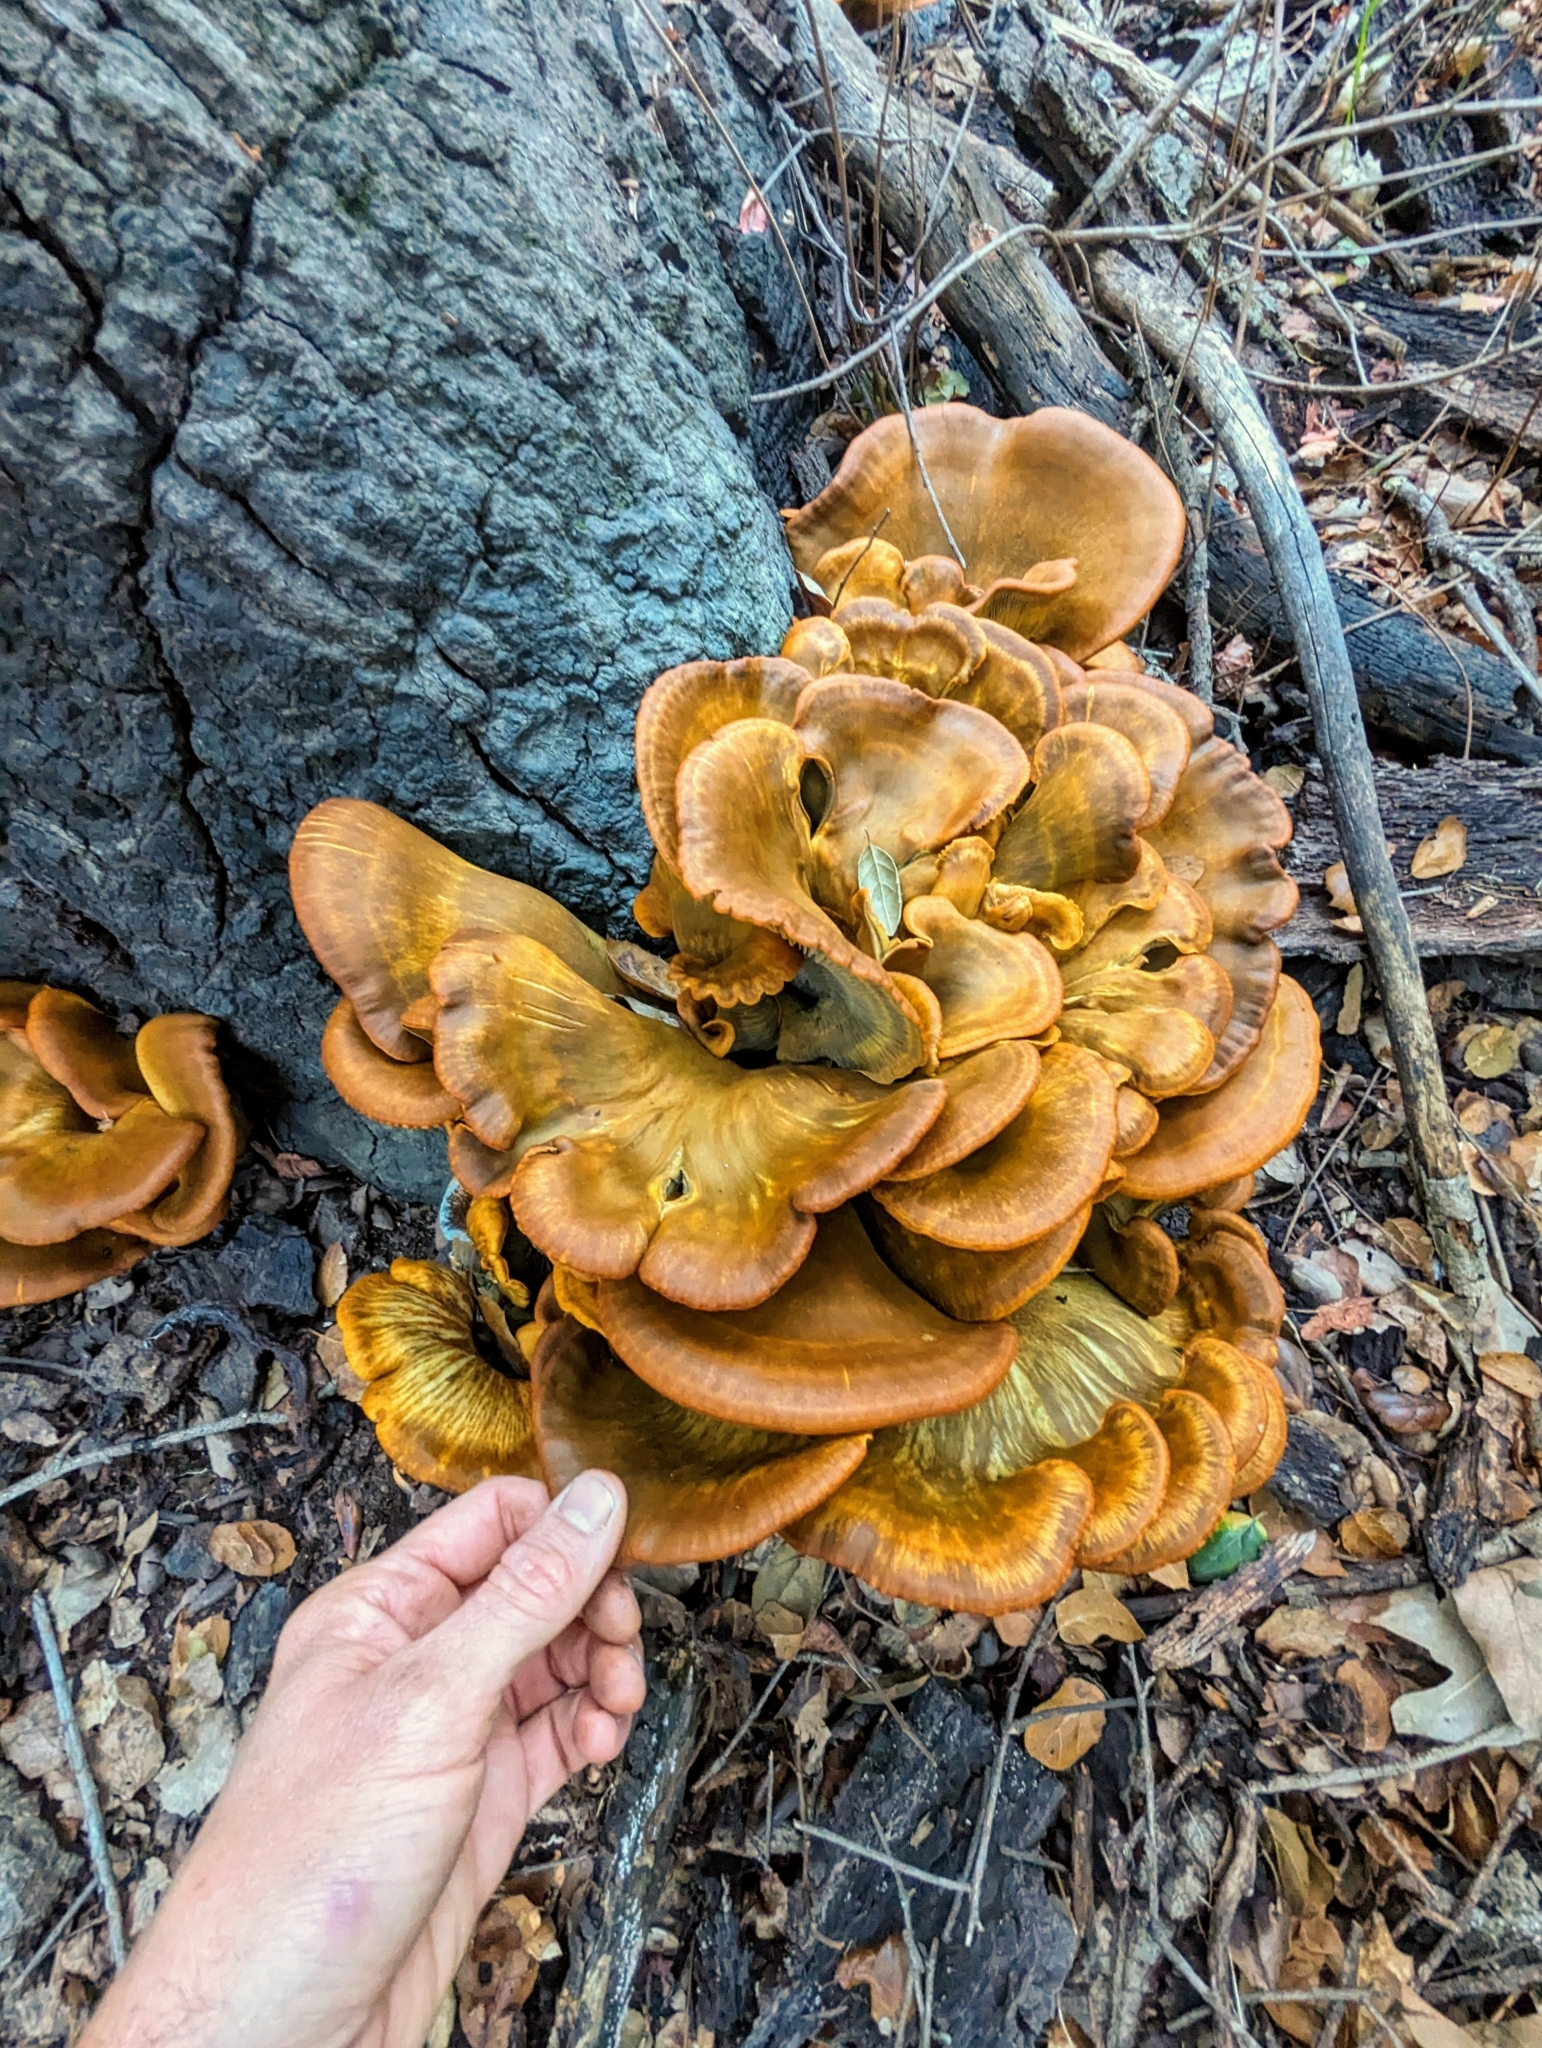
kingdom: Fungi
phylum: Basidiomycota
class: Agaricomycetes
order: Agaricales
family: Omphalotaceae
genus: Omphalotus
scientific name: Omphalotus olivascens
